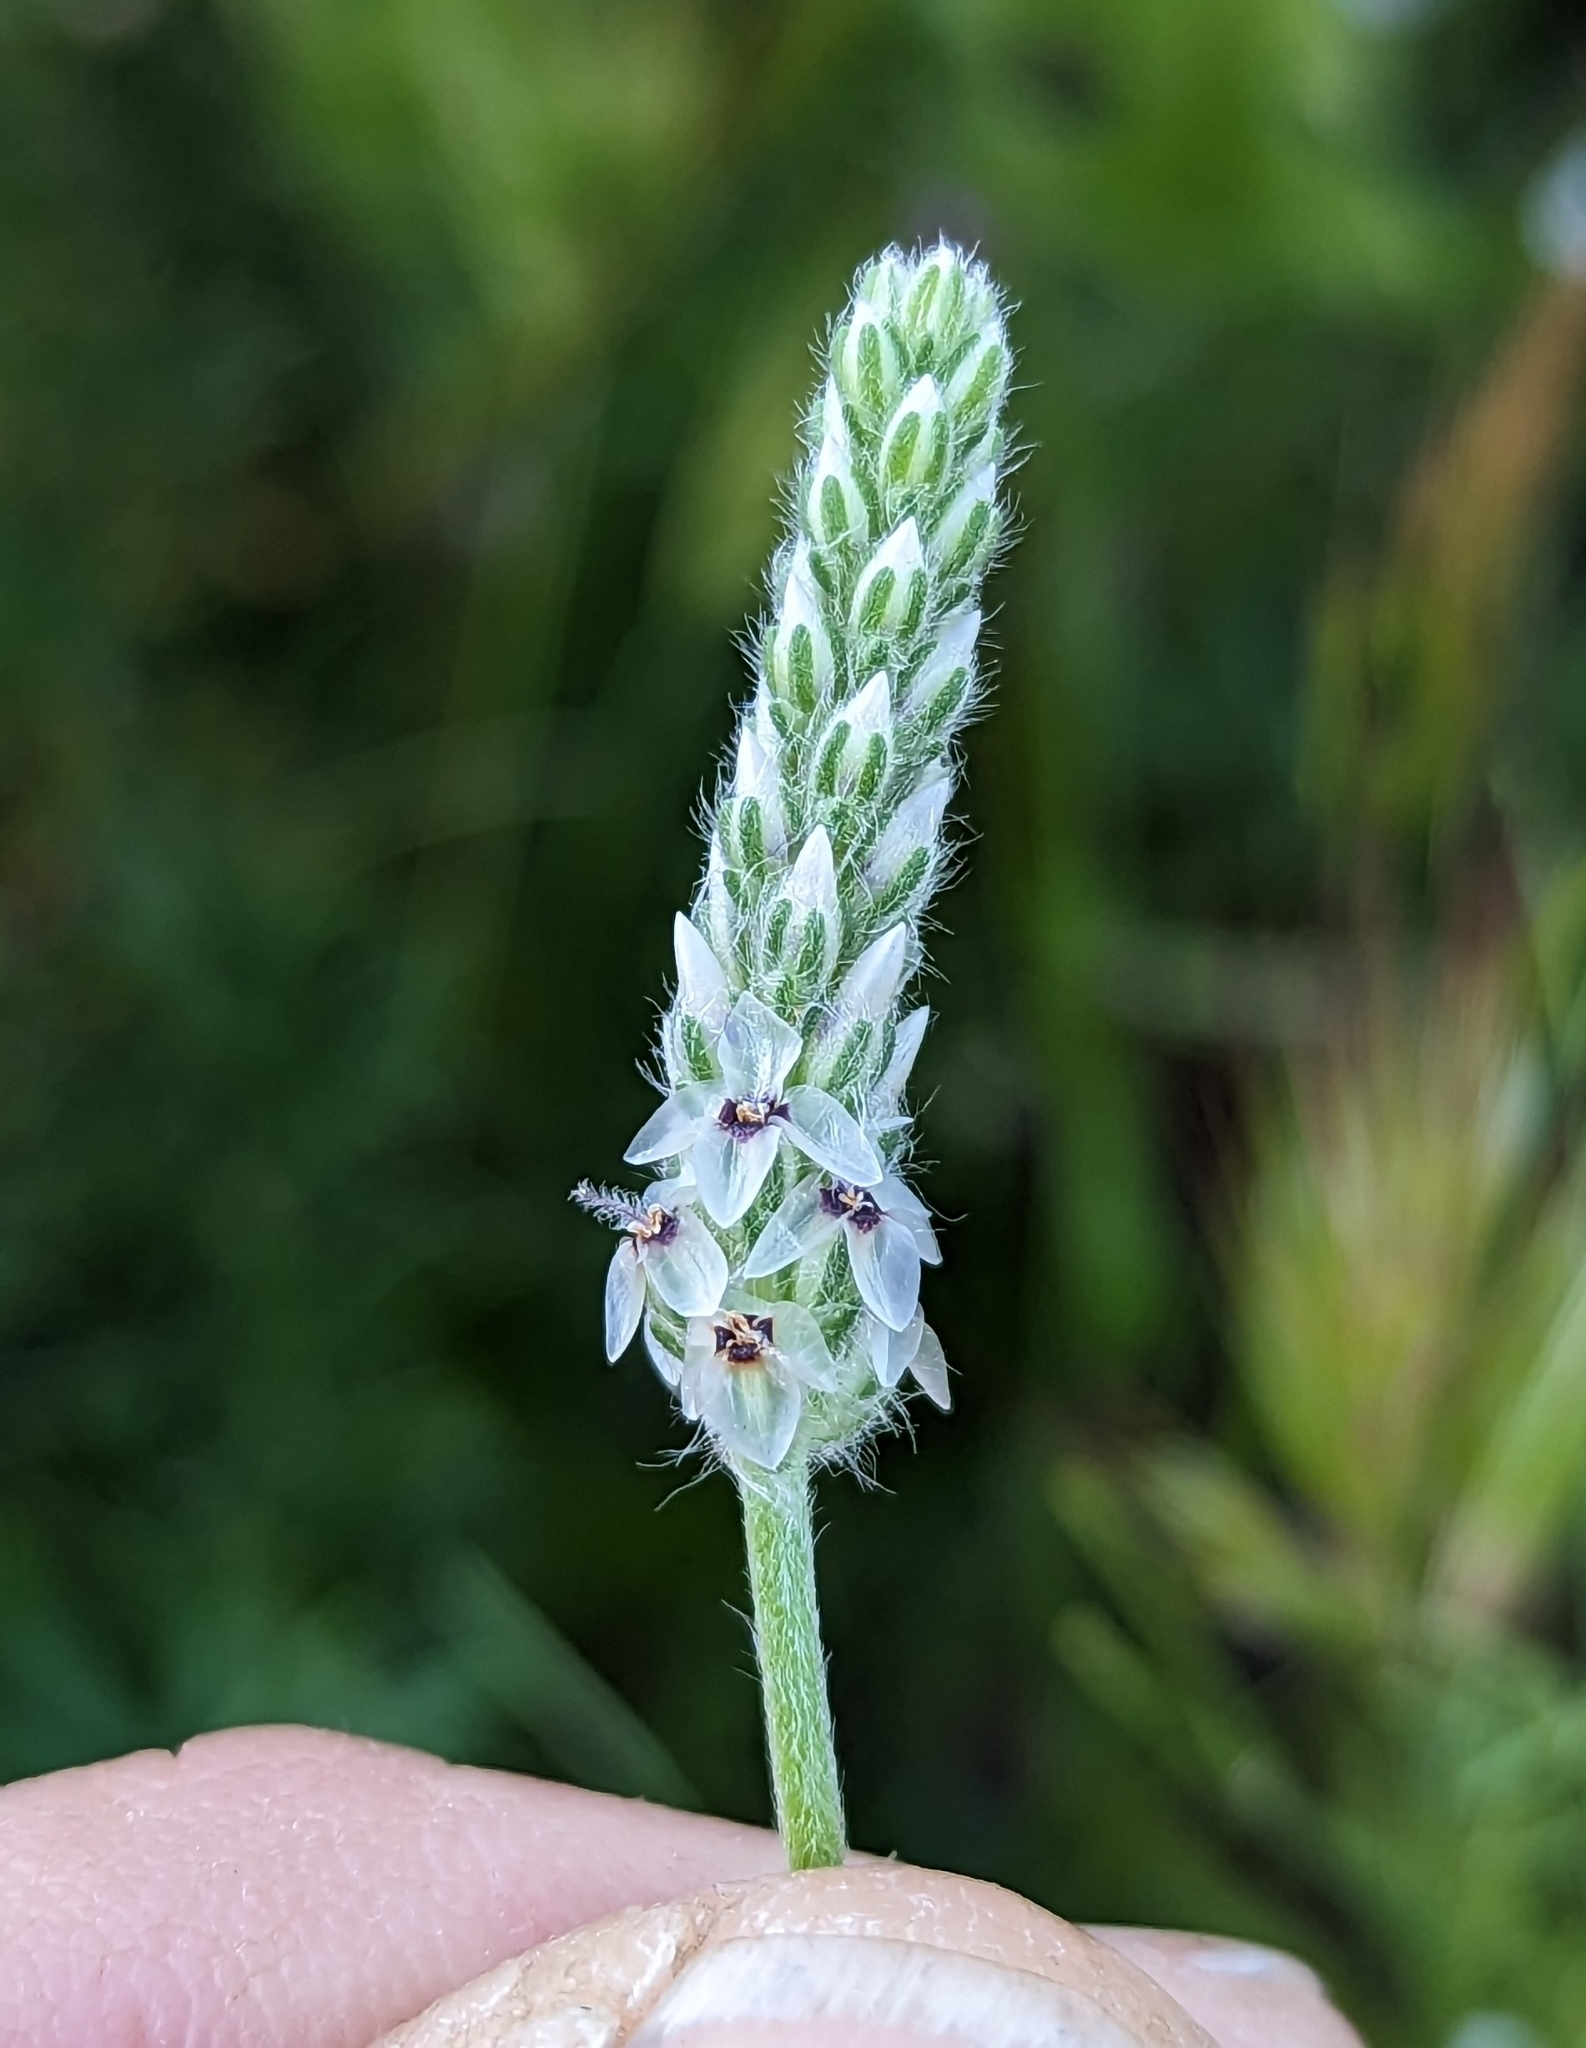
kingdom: Plantae
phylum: Tracheophyta
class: Magnoliopsida
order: Lamiales
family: Plantaginaceae
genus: Plantago
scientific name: Plantago erecta
